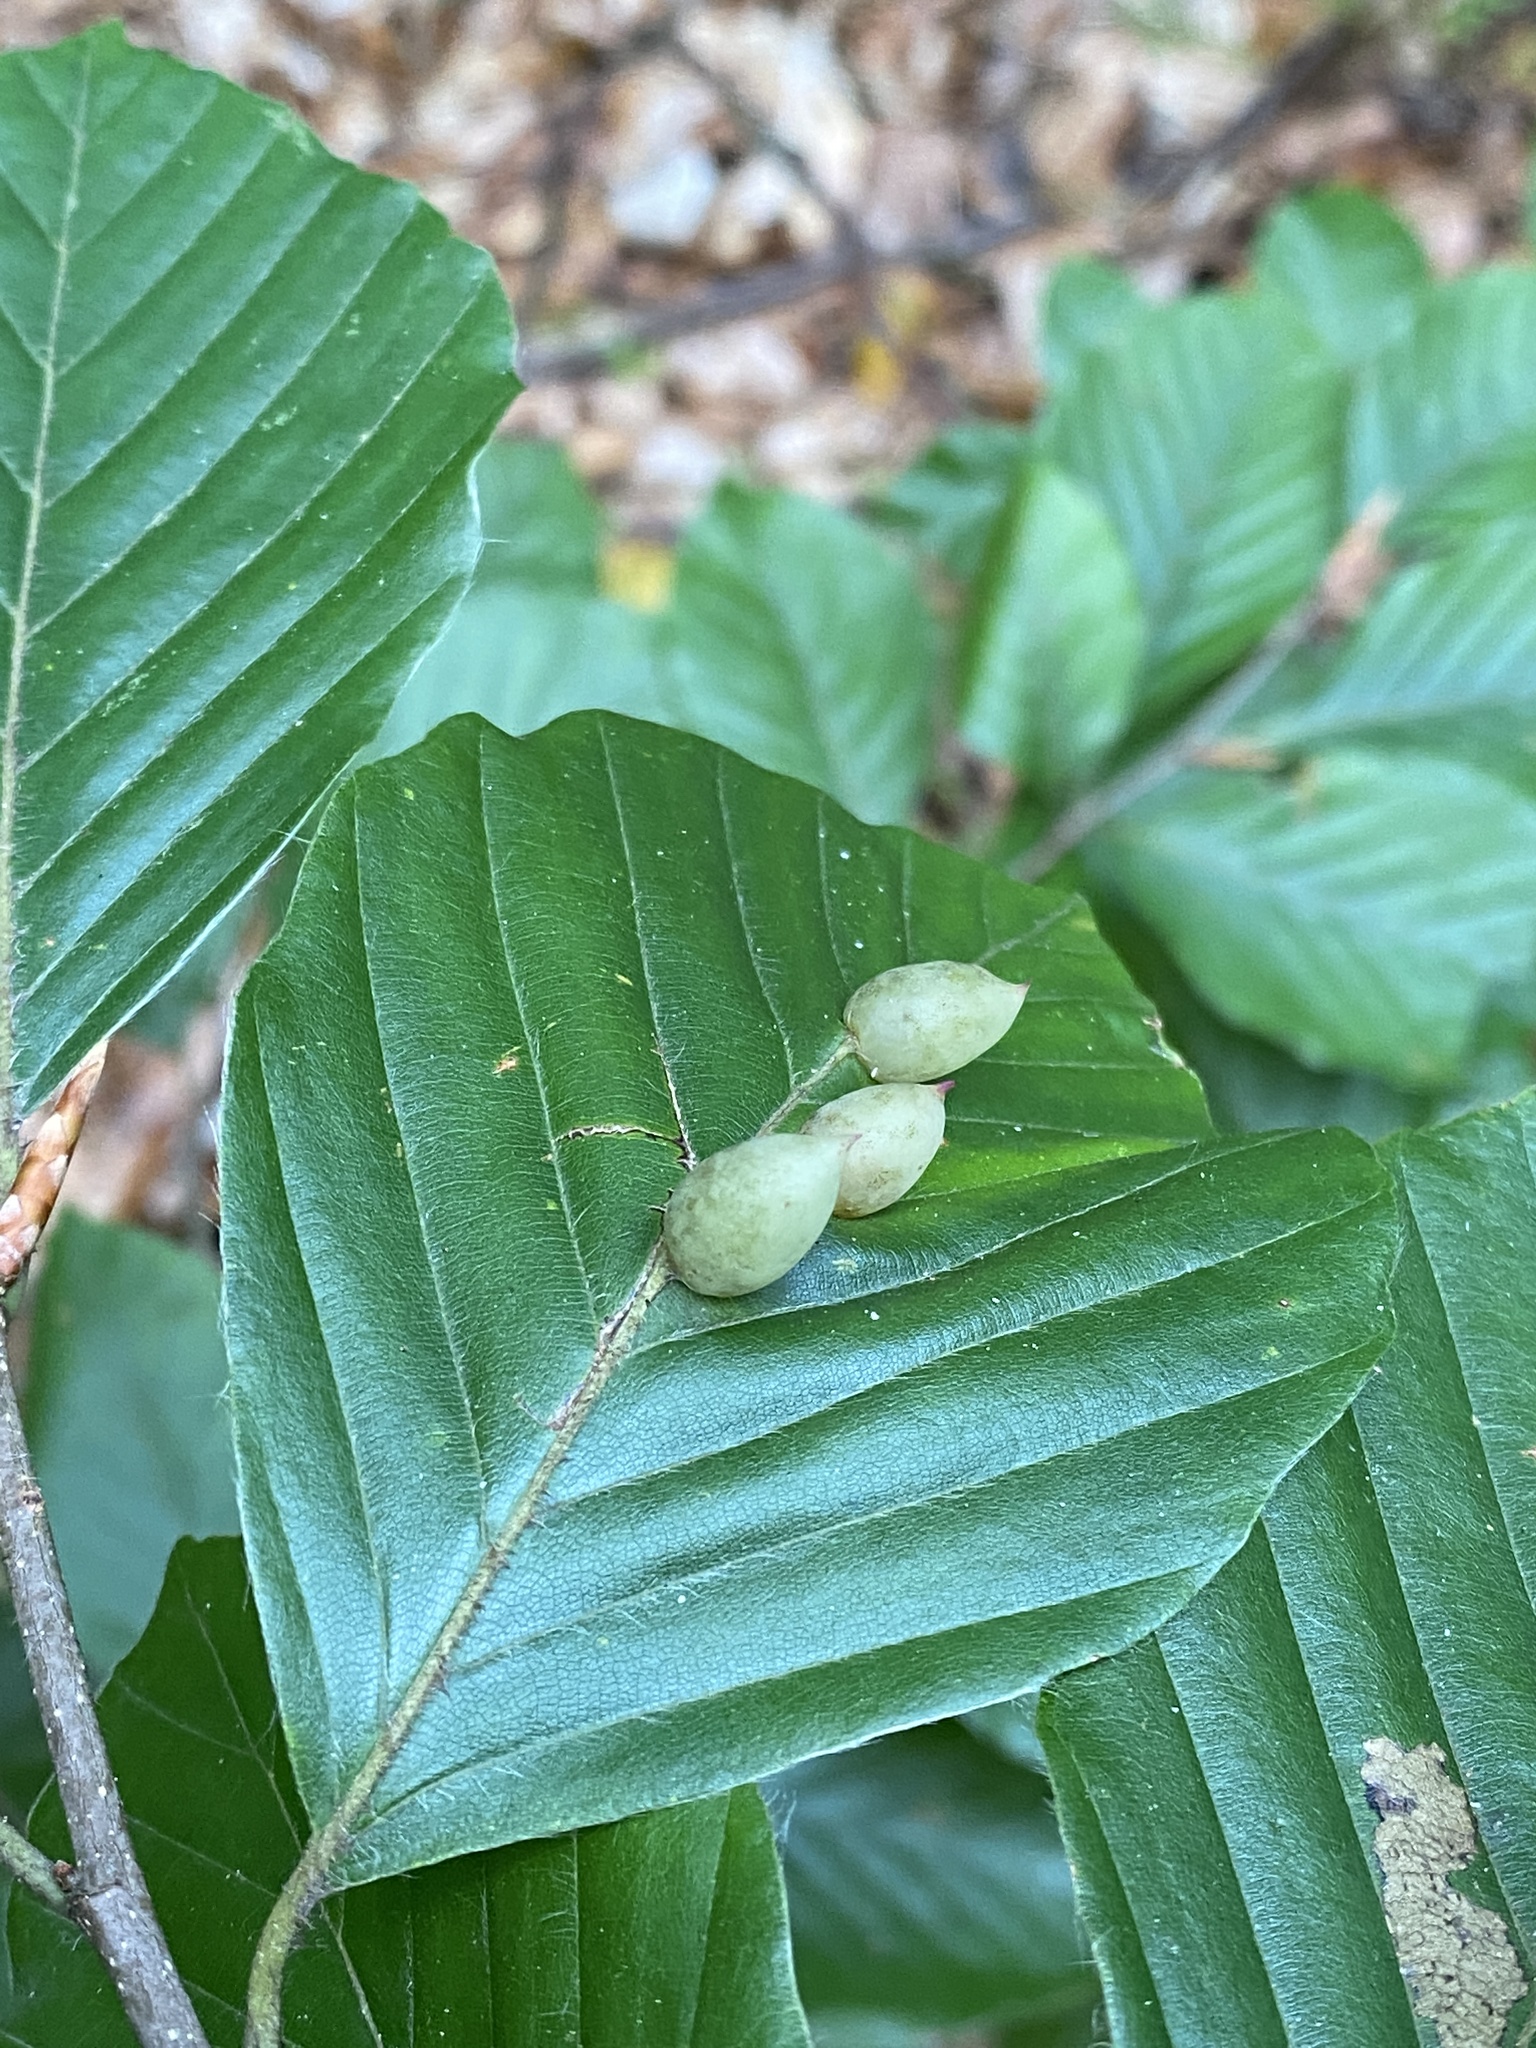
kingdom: Animalia
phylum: Arthropoda
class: Insecta
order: Diptera
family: Cecidomyiidae
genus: Mikiola
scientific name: Mikiola fagi
